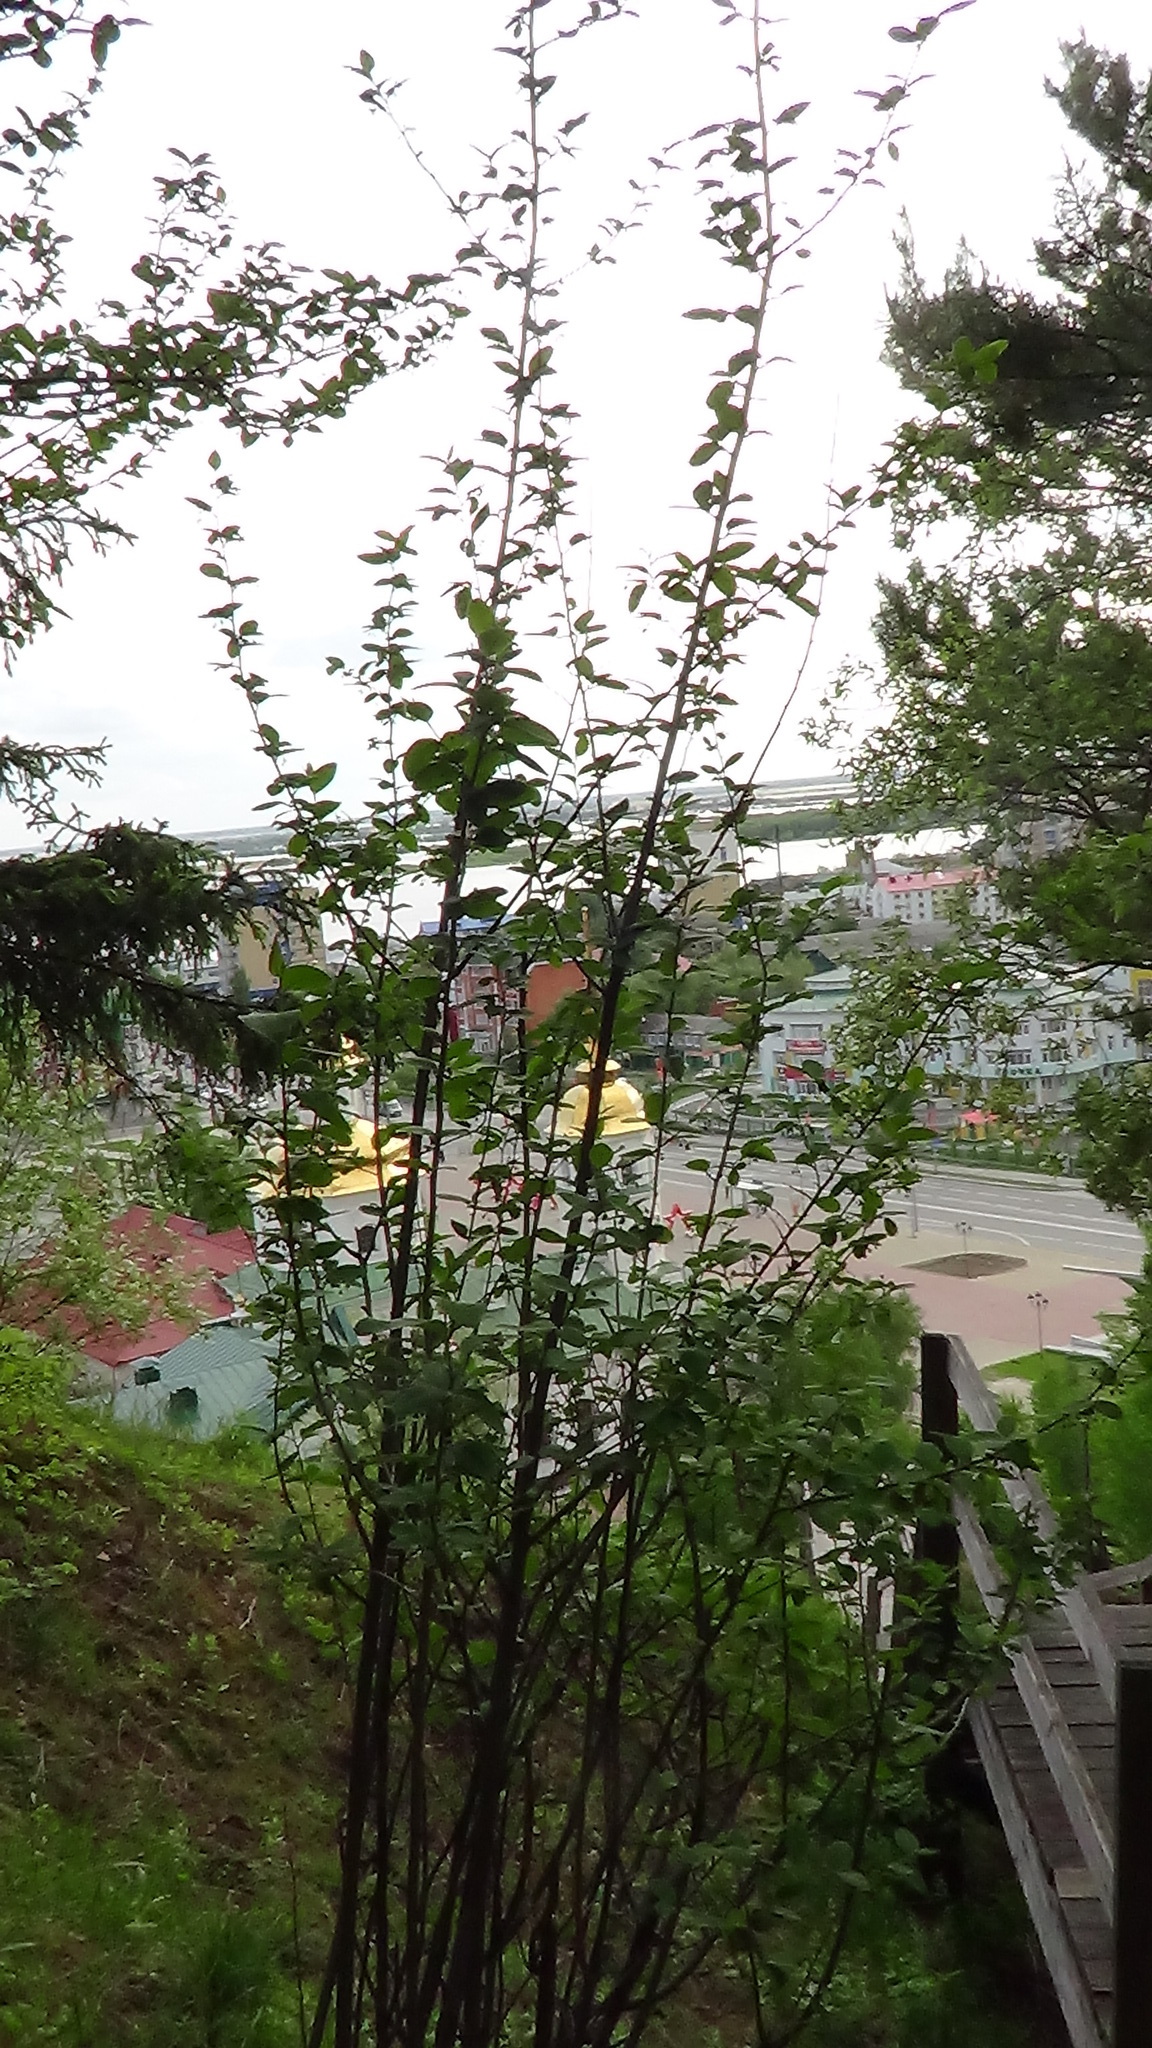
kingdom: Plantae
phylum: Tracheophyta
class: Magnoliopsida
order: Rosales
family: Rosaceae
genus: Cotoneaster
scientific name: Cotoneaster melanocarpus
